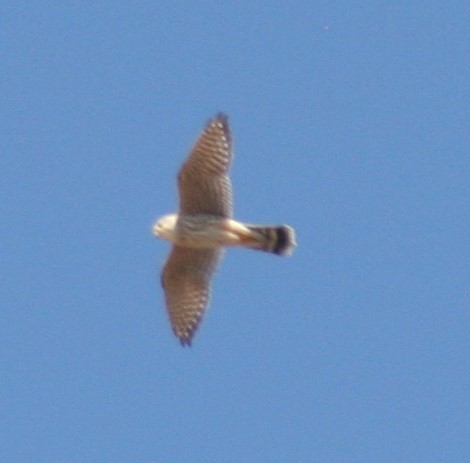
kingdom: Animalia
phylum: Chordata
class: Aves
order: Falconiformes
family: Falconidae
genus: Falco
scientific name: Falco columbarius
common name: Merlin
